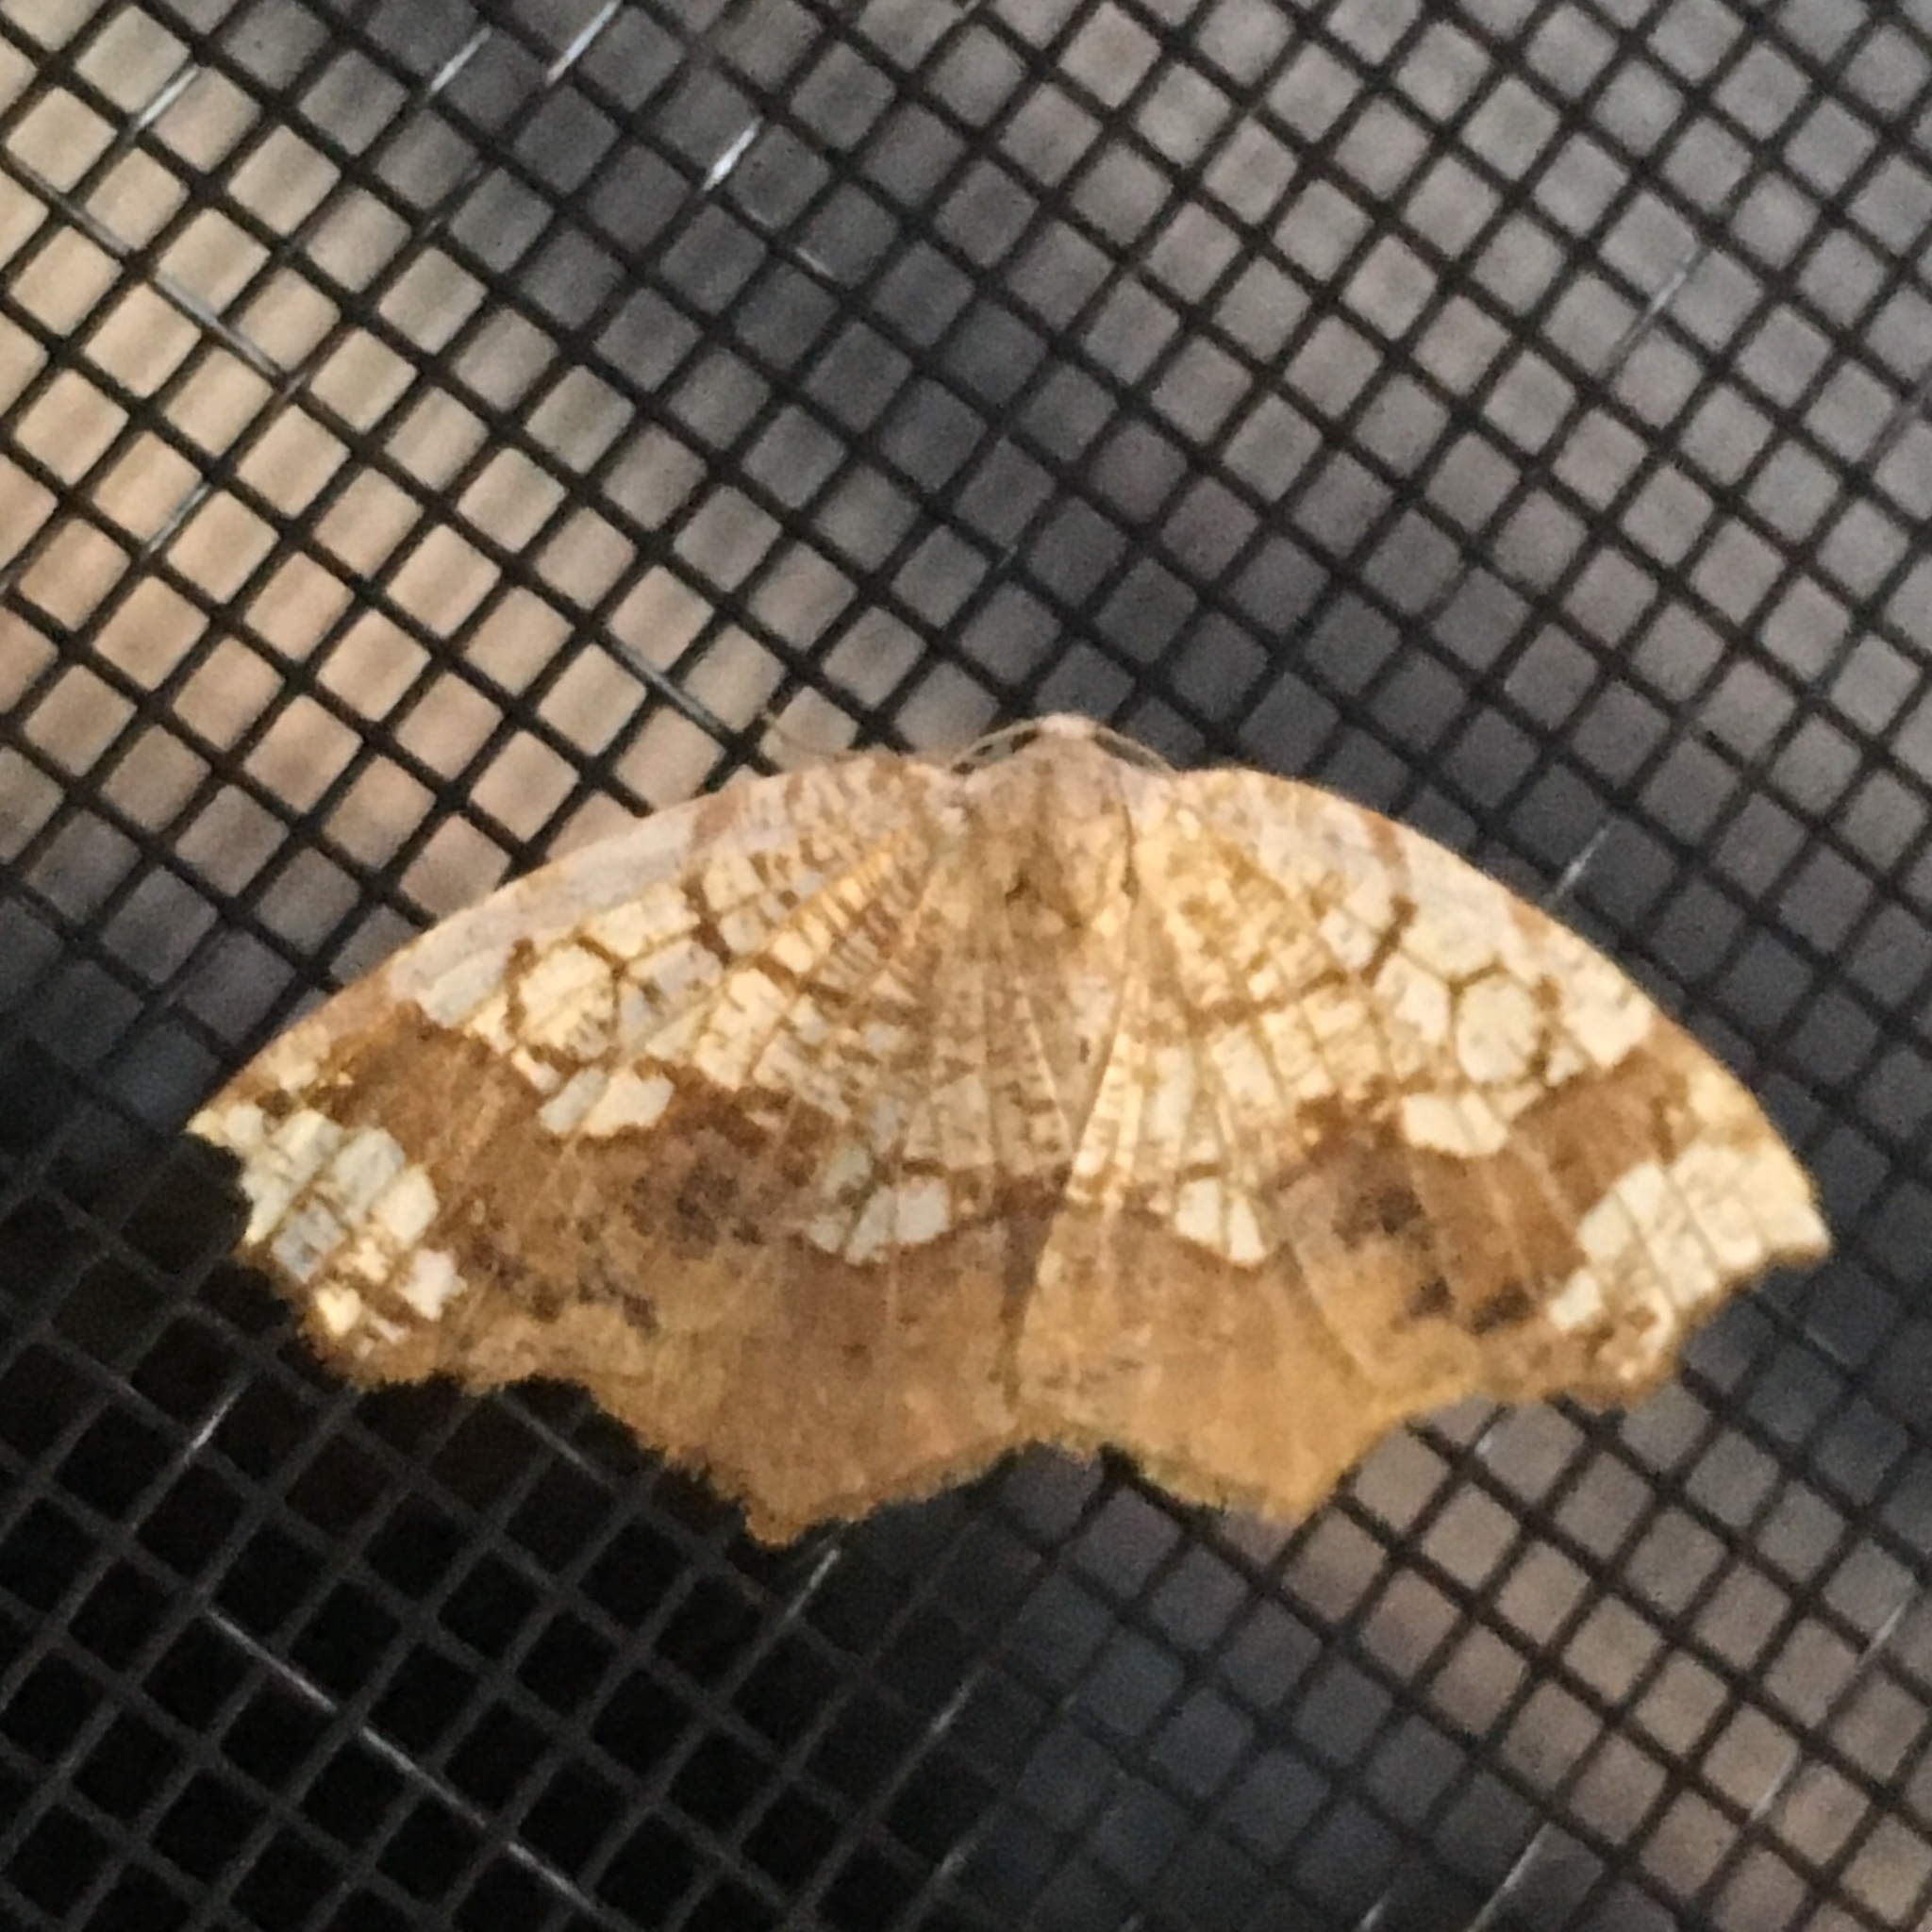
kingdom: Animalia
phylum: Arthropoda
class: Insecta
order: Lepidoptera
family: Geometridae
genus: Nematocampa
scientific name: Nematocampa resistaria
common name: Horned spanworm moth
